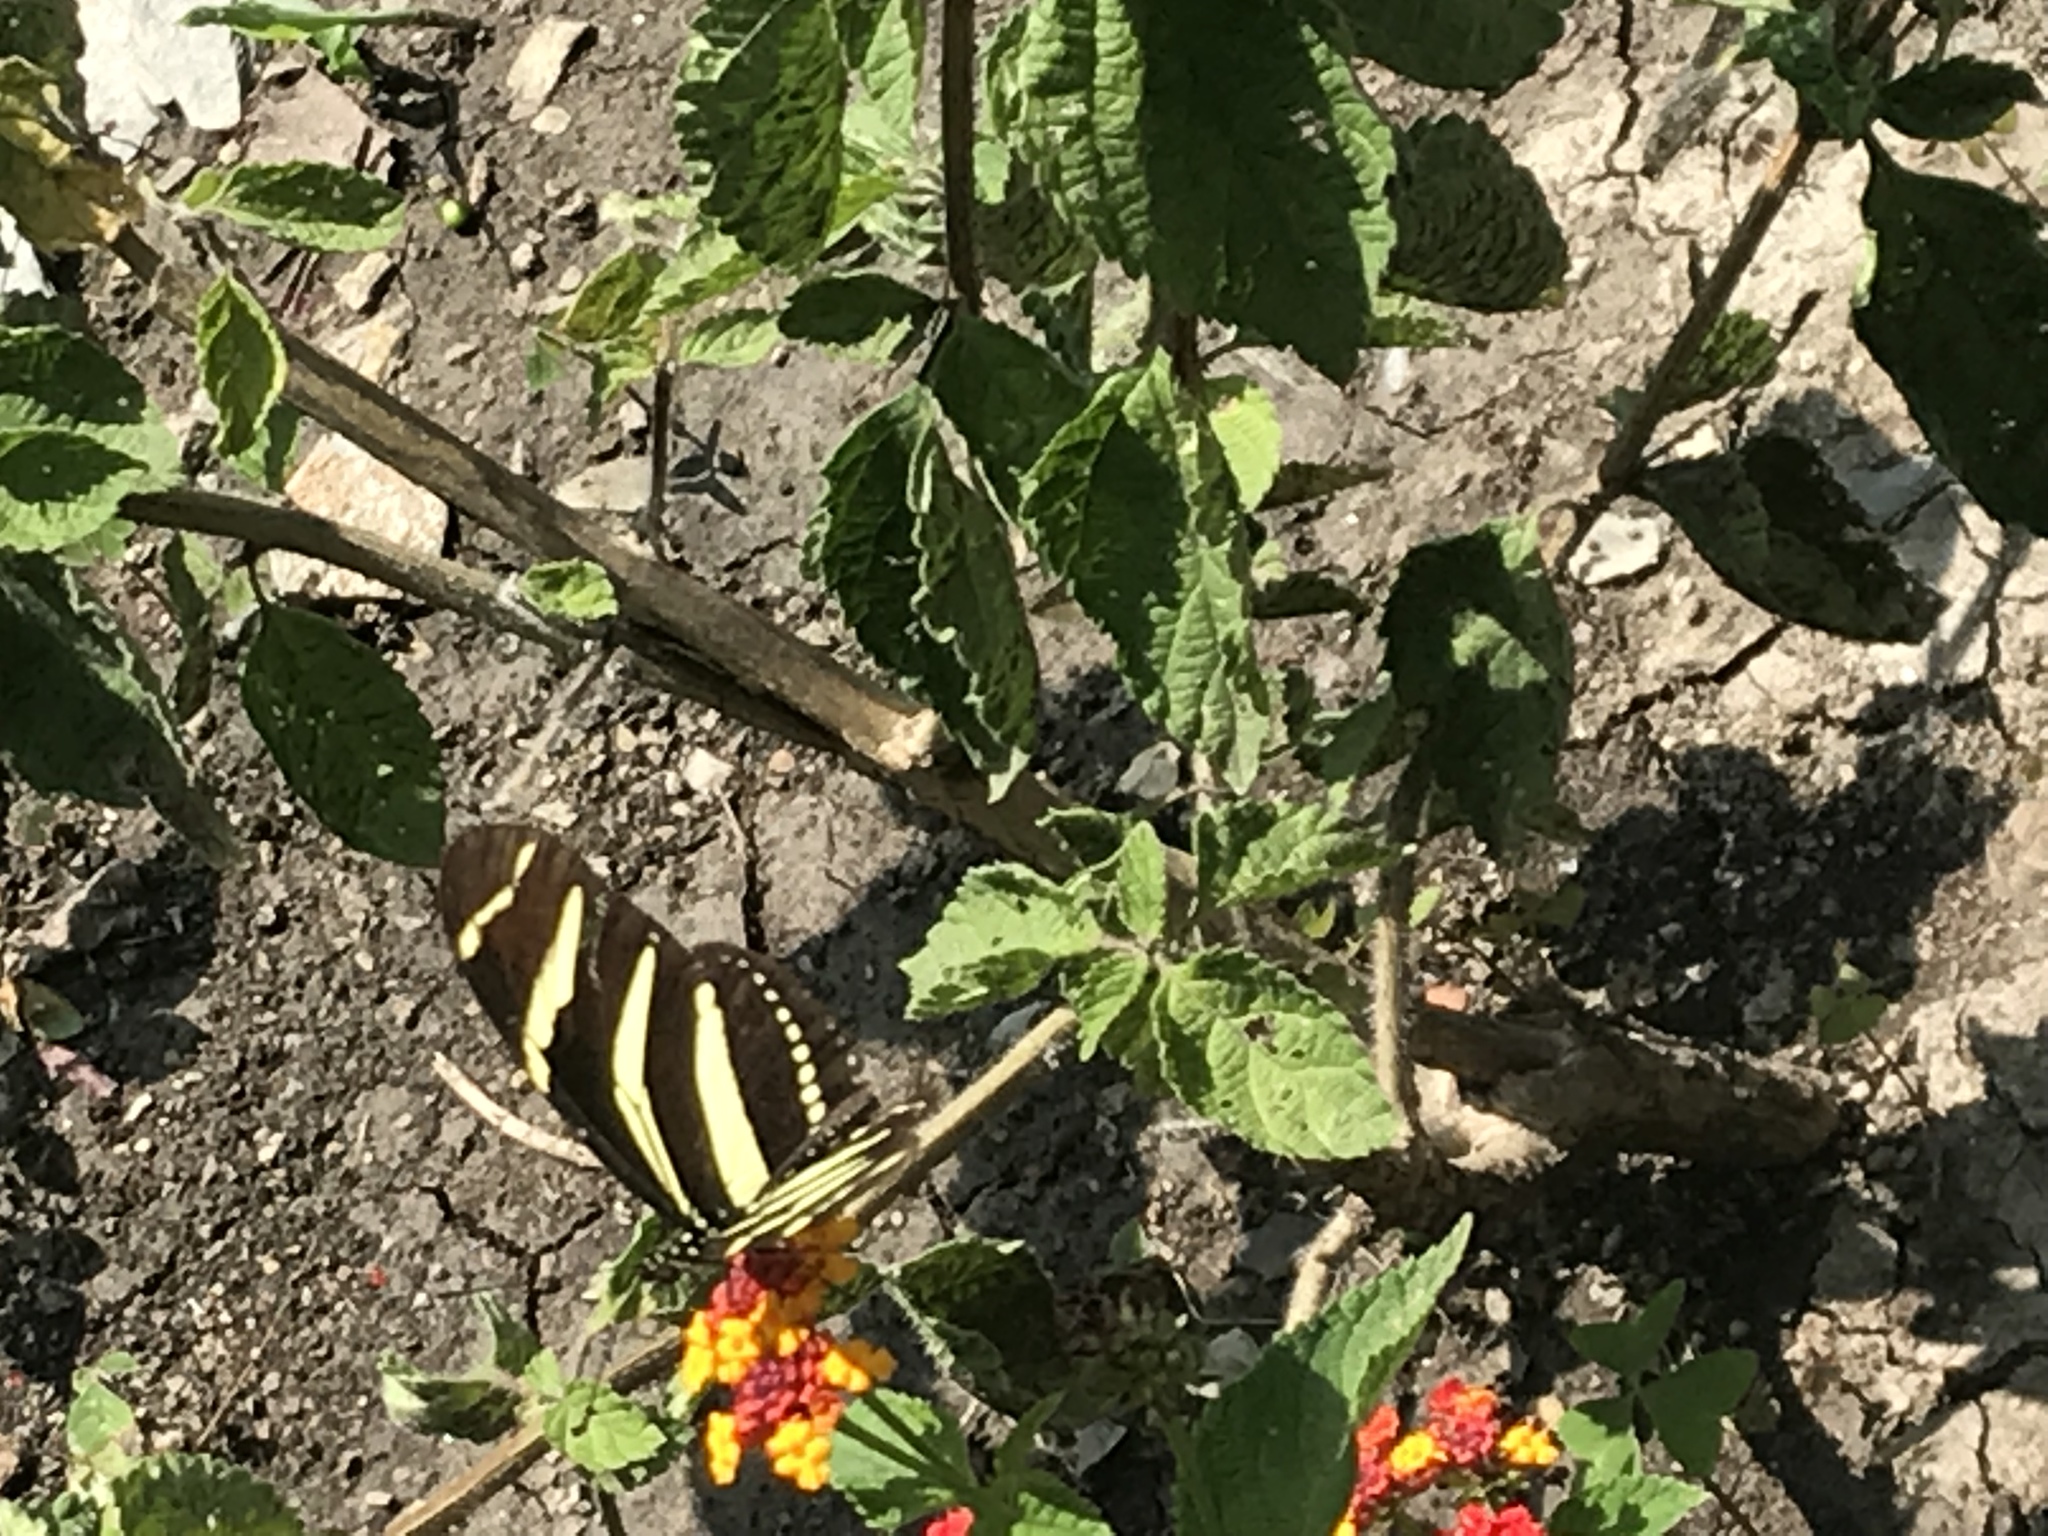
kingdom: Animalia
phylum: Arthropoda
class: Insecta
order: Lepidoptera
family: Nymphalidae
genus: Heliconius
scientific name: Heliconius charithonia
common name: Zebra long wing
